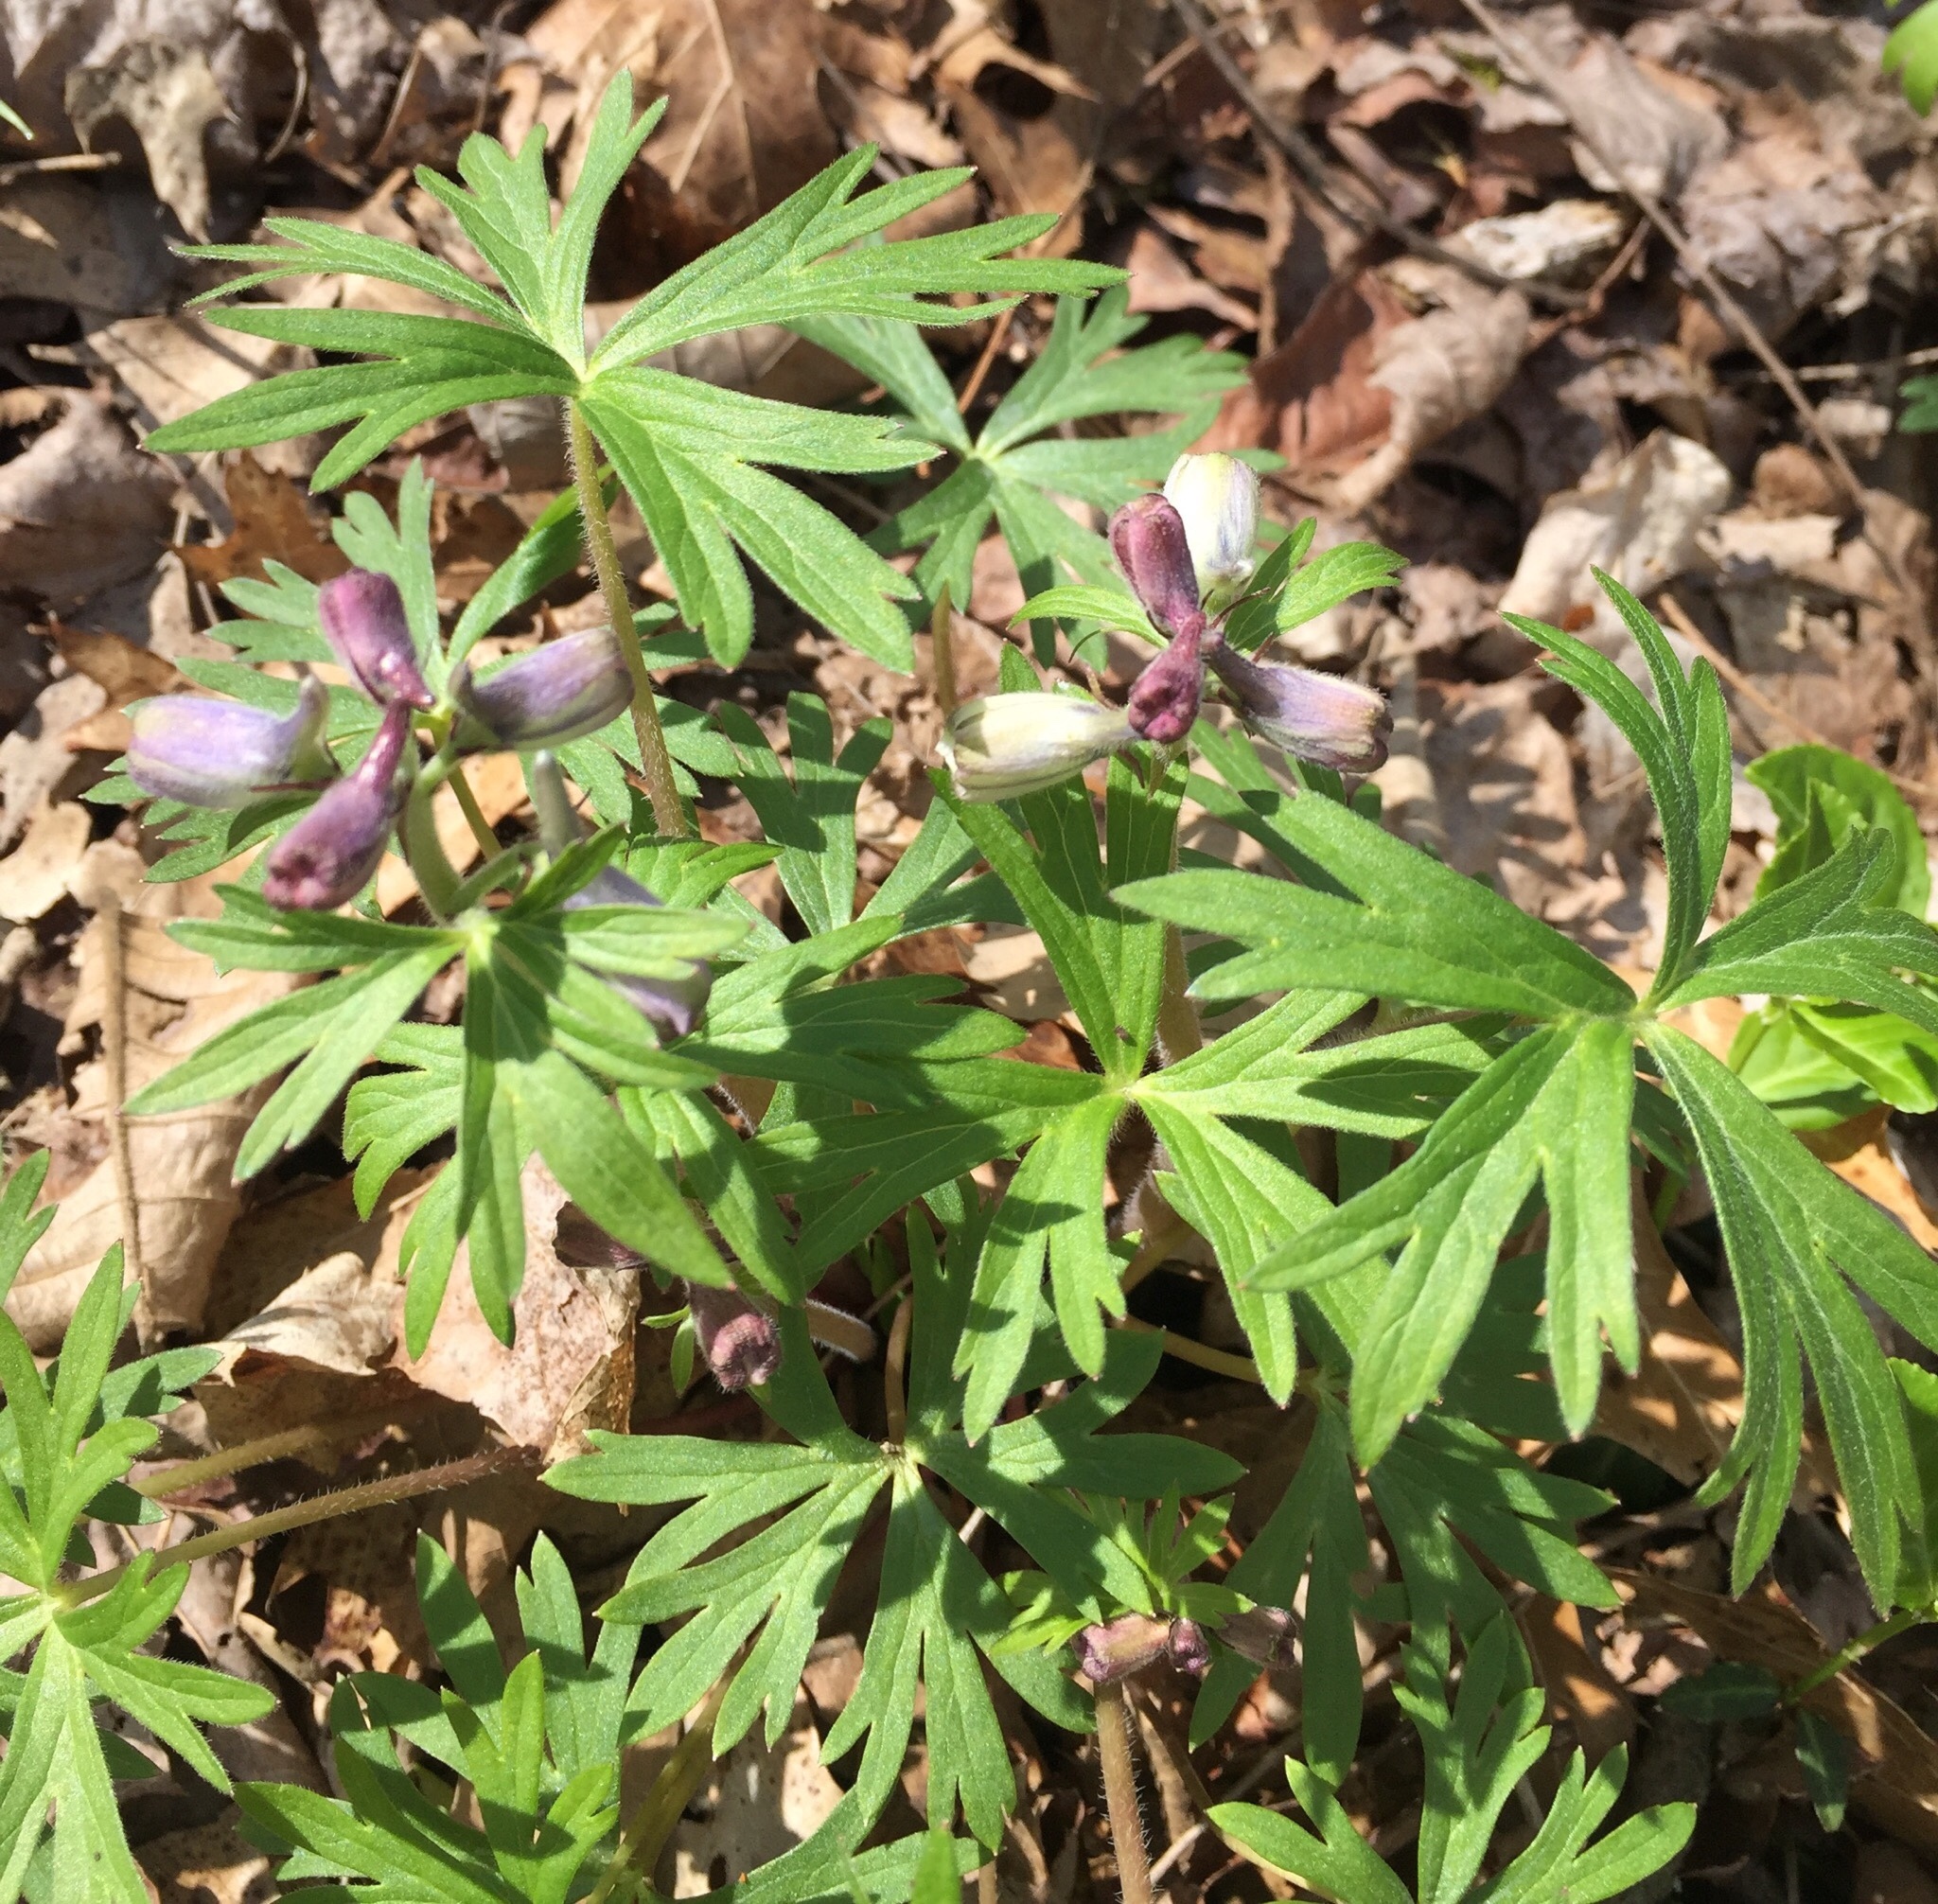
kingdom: Plantae
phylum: Tracheophyta
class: Magnoliopsida
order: Ranunculales
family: Ranunculaceae
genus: Delphinium
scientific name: Delphinium tricorne
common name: Dwarf larkspur
